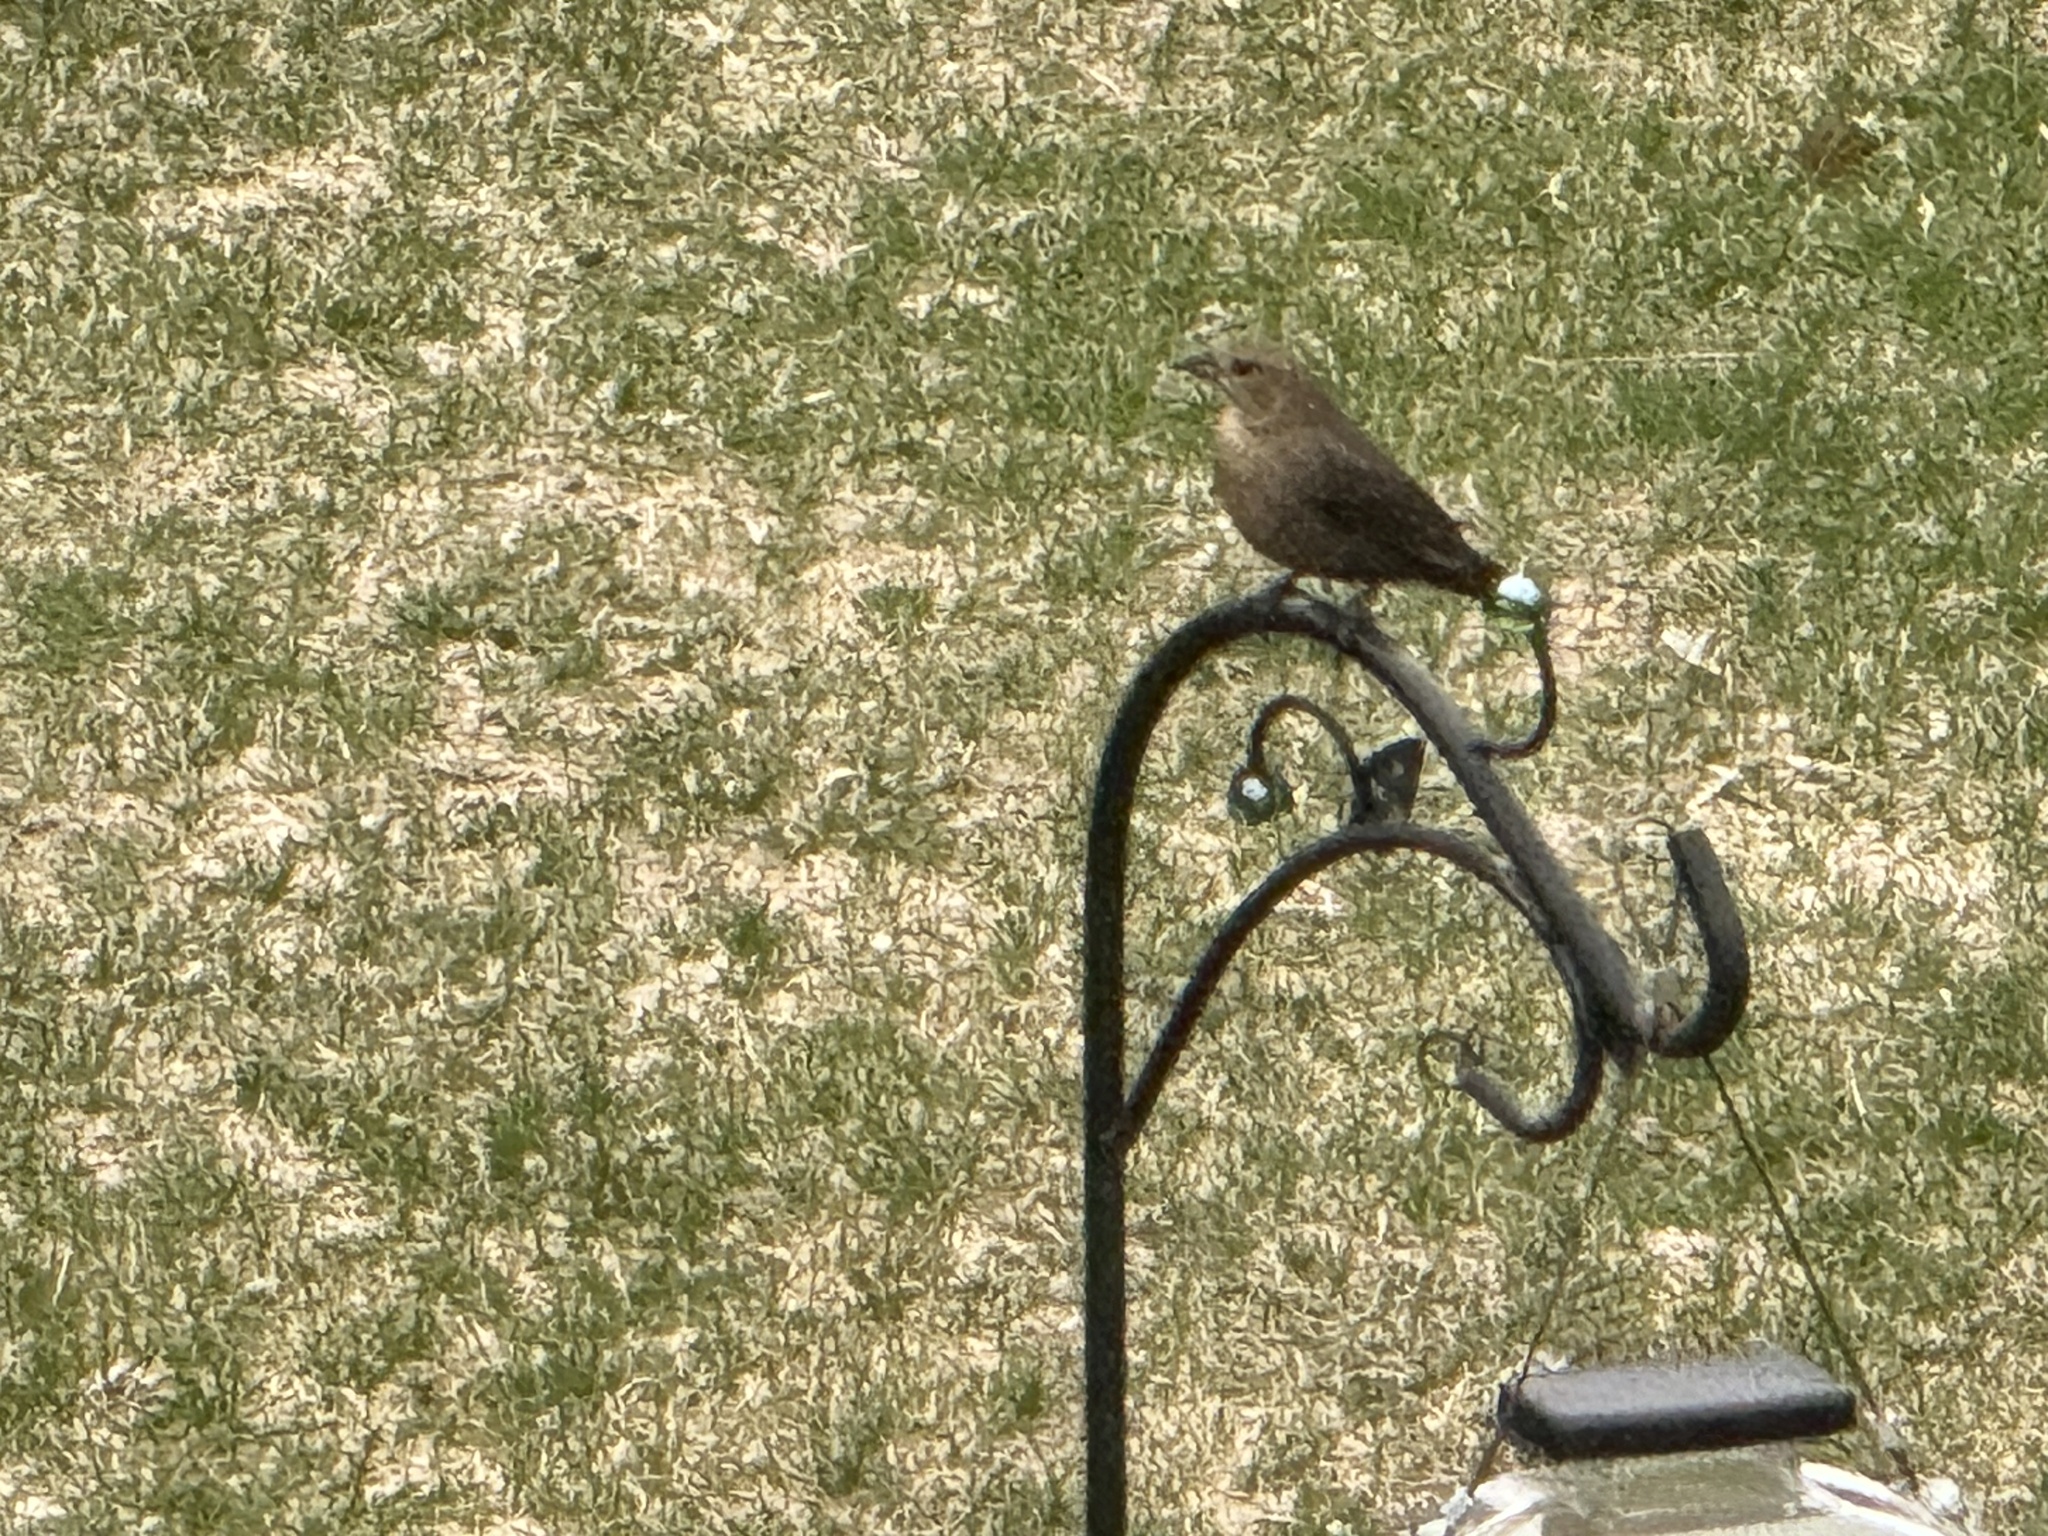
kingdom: Animalia
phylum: Chordata
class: Aves
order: Passeriformes
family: Icteridae
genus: Molothrus
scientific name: Molothrus ater
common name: Brown-headed cowbird
